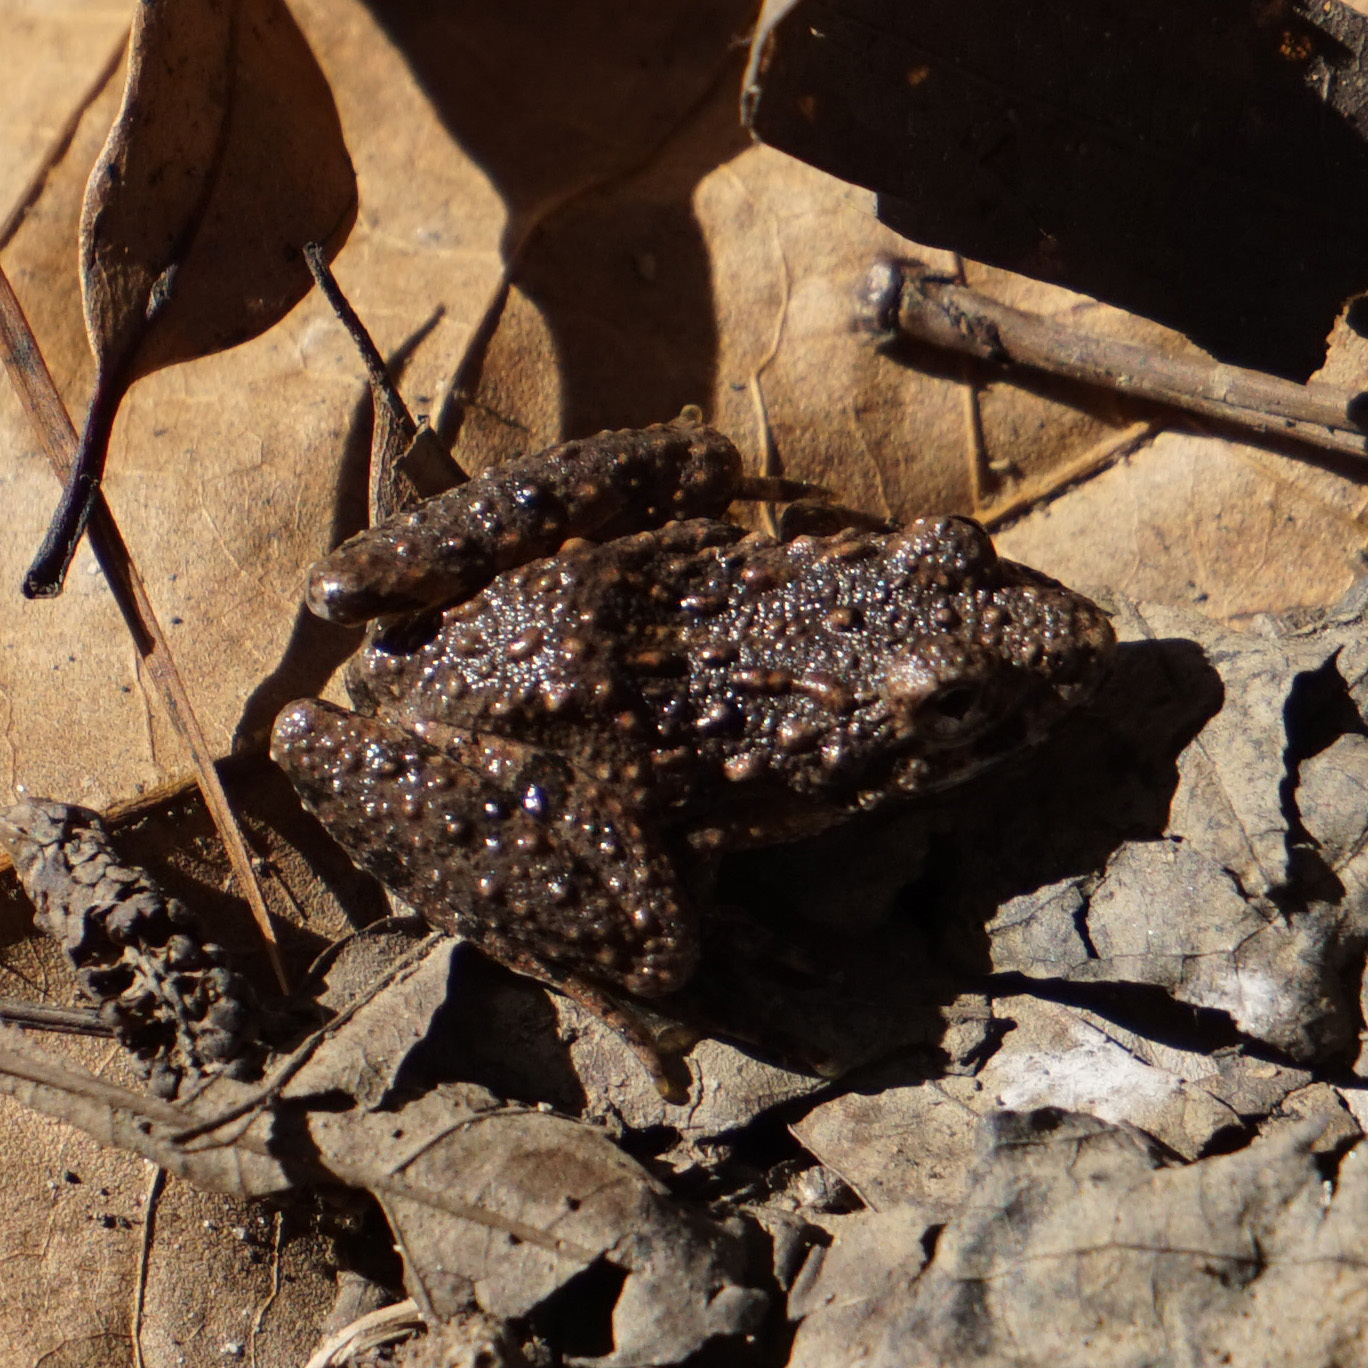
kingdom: Animalia
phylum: Chordata
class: Amphibia
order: Anura
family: Hylidae
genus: Acris
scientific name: Acris crepitans
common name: Northern cricket frog
